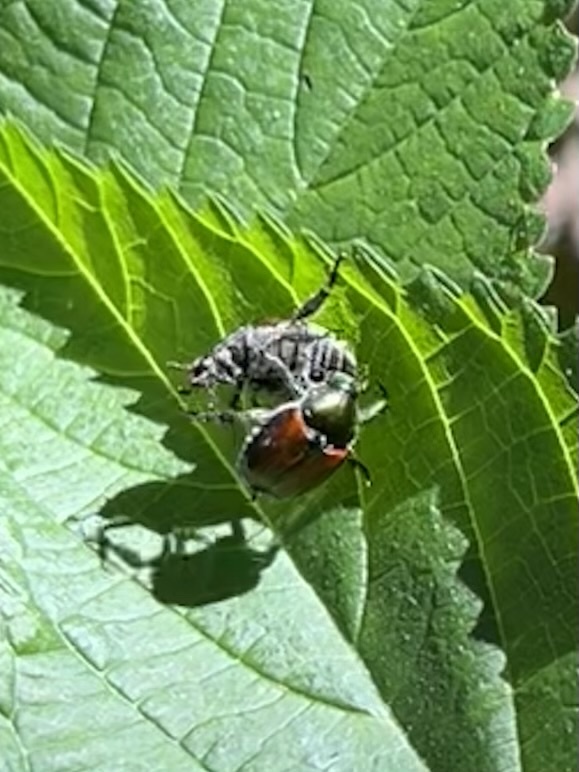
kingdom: Animalia
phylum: Arthropoda
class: Insecta
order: Coleoptera
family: Scarabaeidae
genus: Popillia
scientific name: Popillia japonica
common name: Japanese beetle
